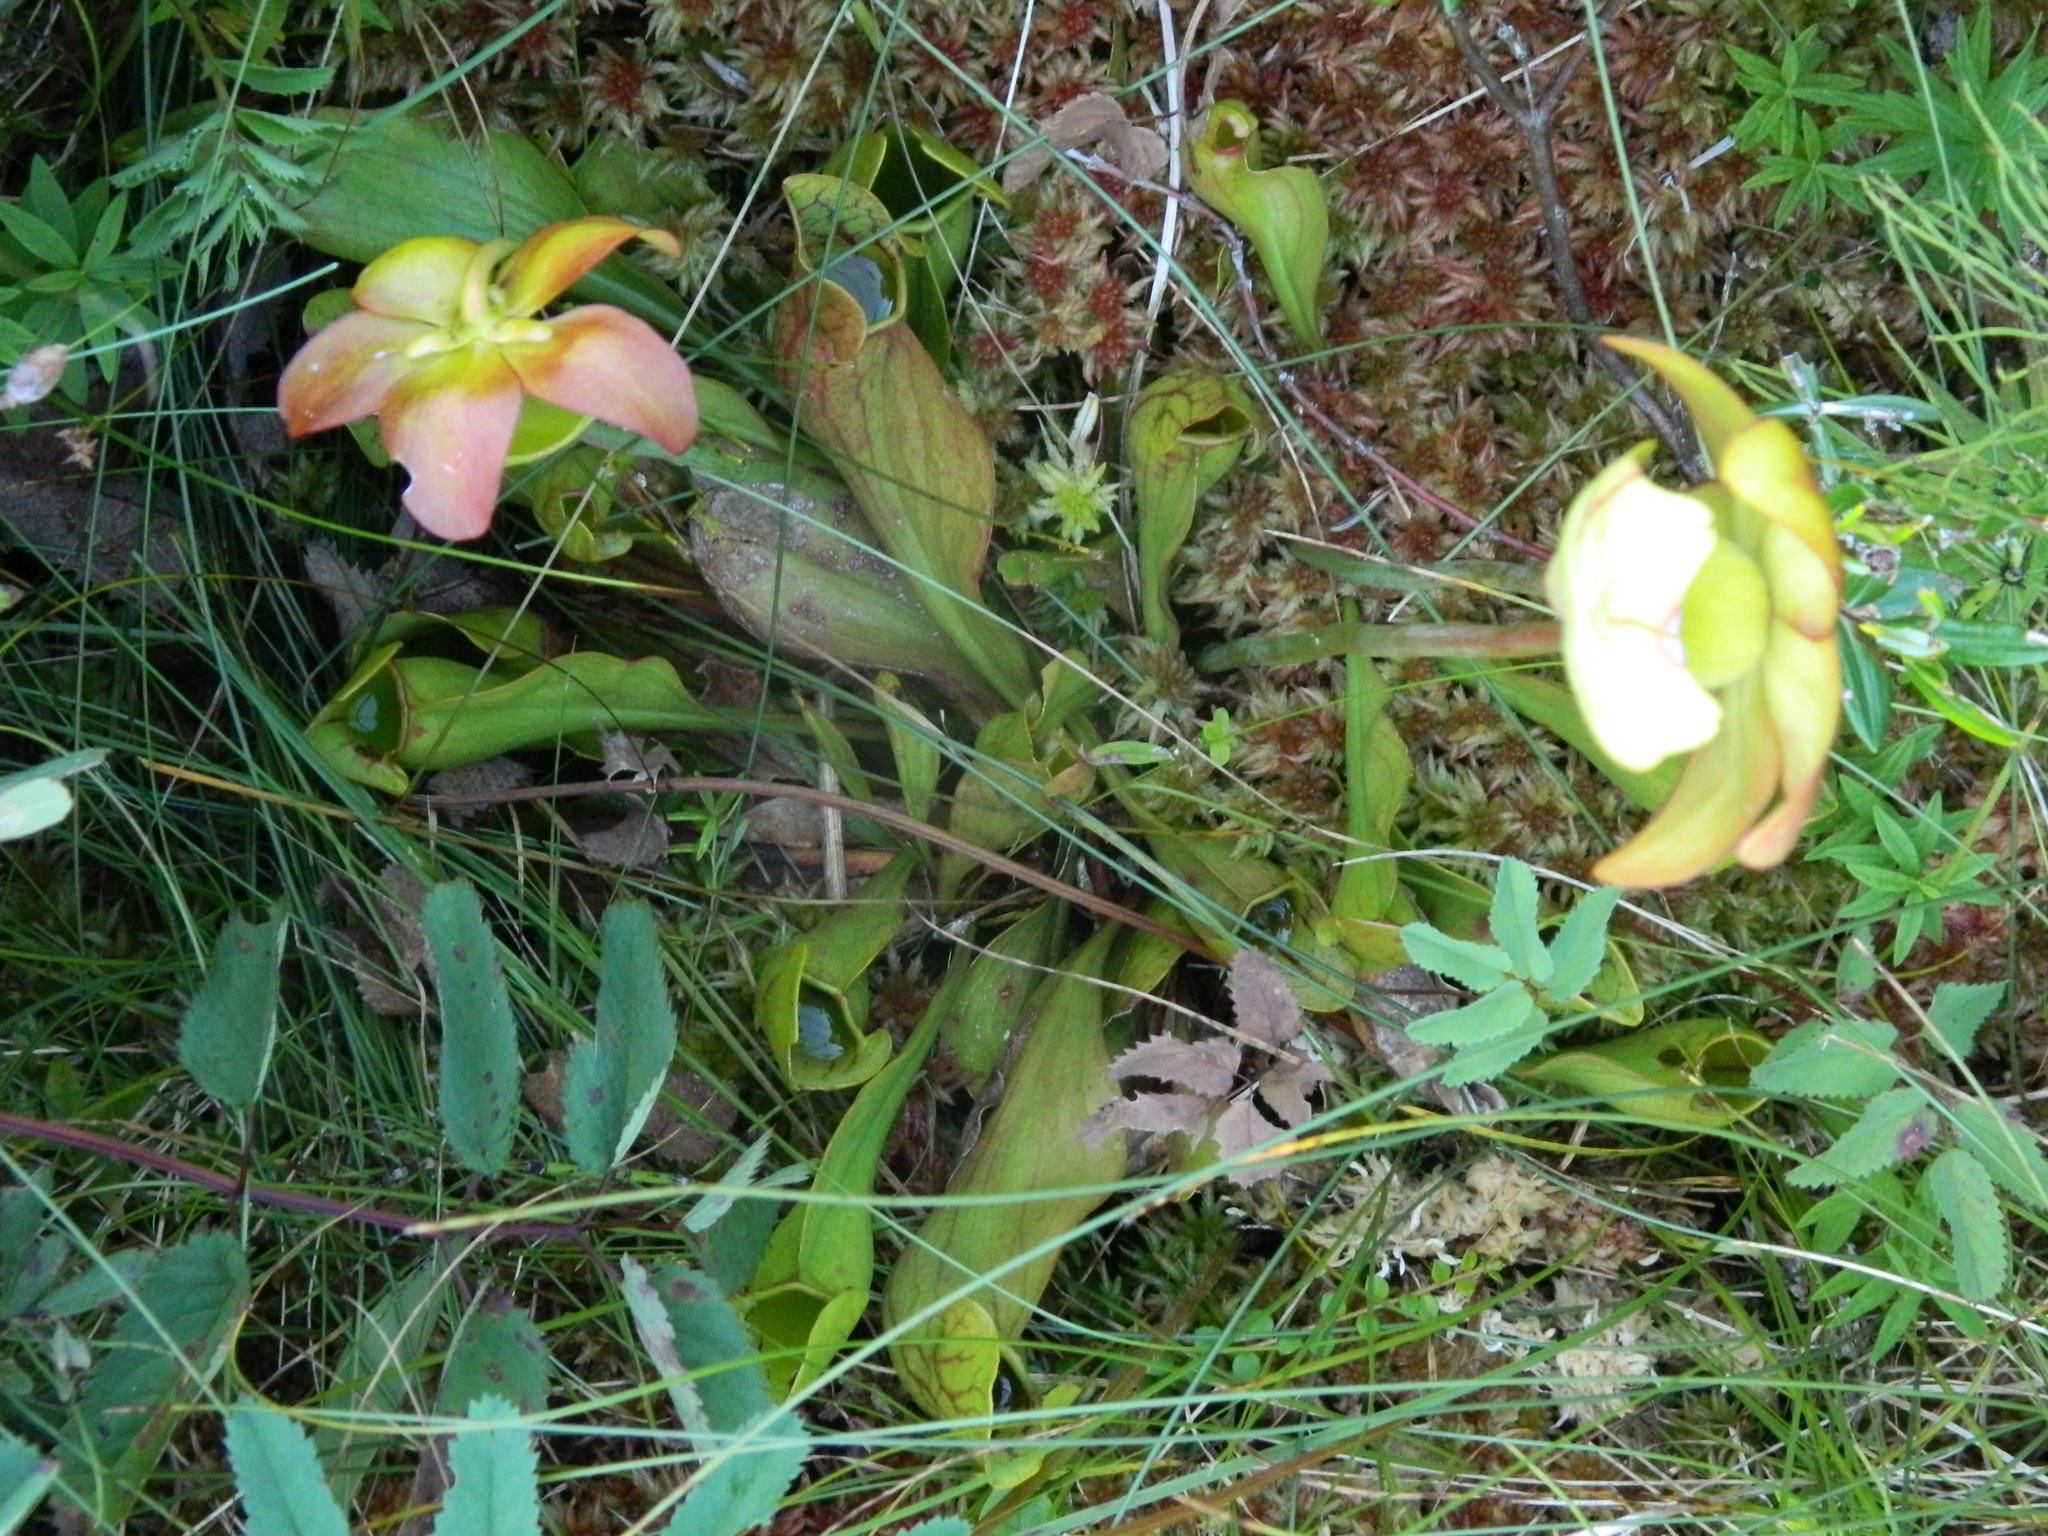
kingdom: Plantae
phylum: Tracheophyta
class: Magnoliopsida
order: Ericales
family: Sarraceniaceae
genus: Sarracenia
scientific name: Sarracenia purpurea
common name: Pitcherplant
